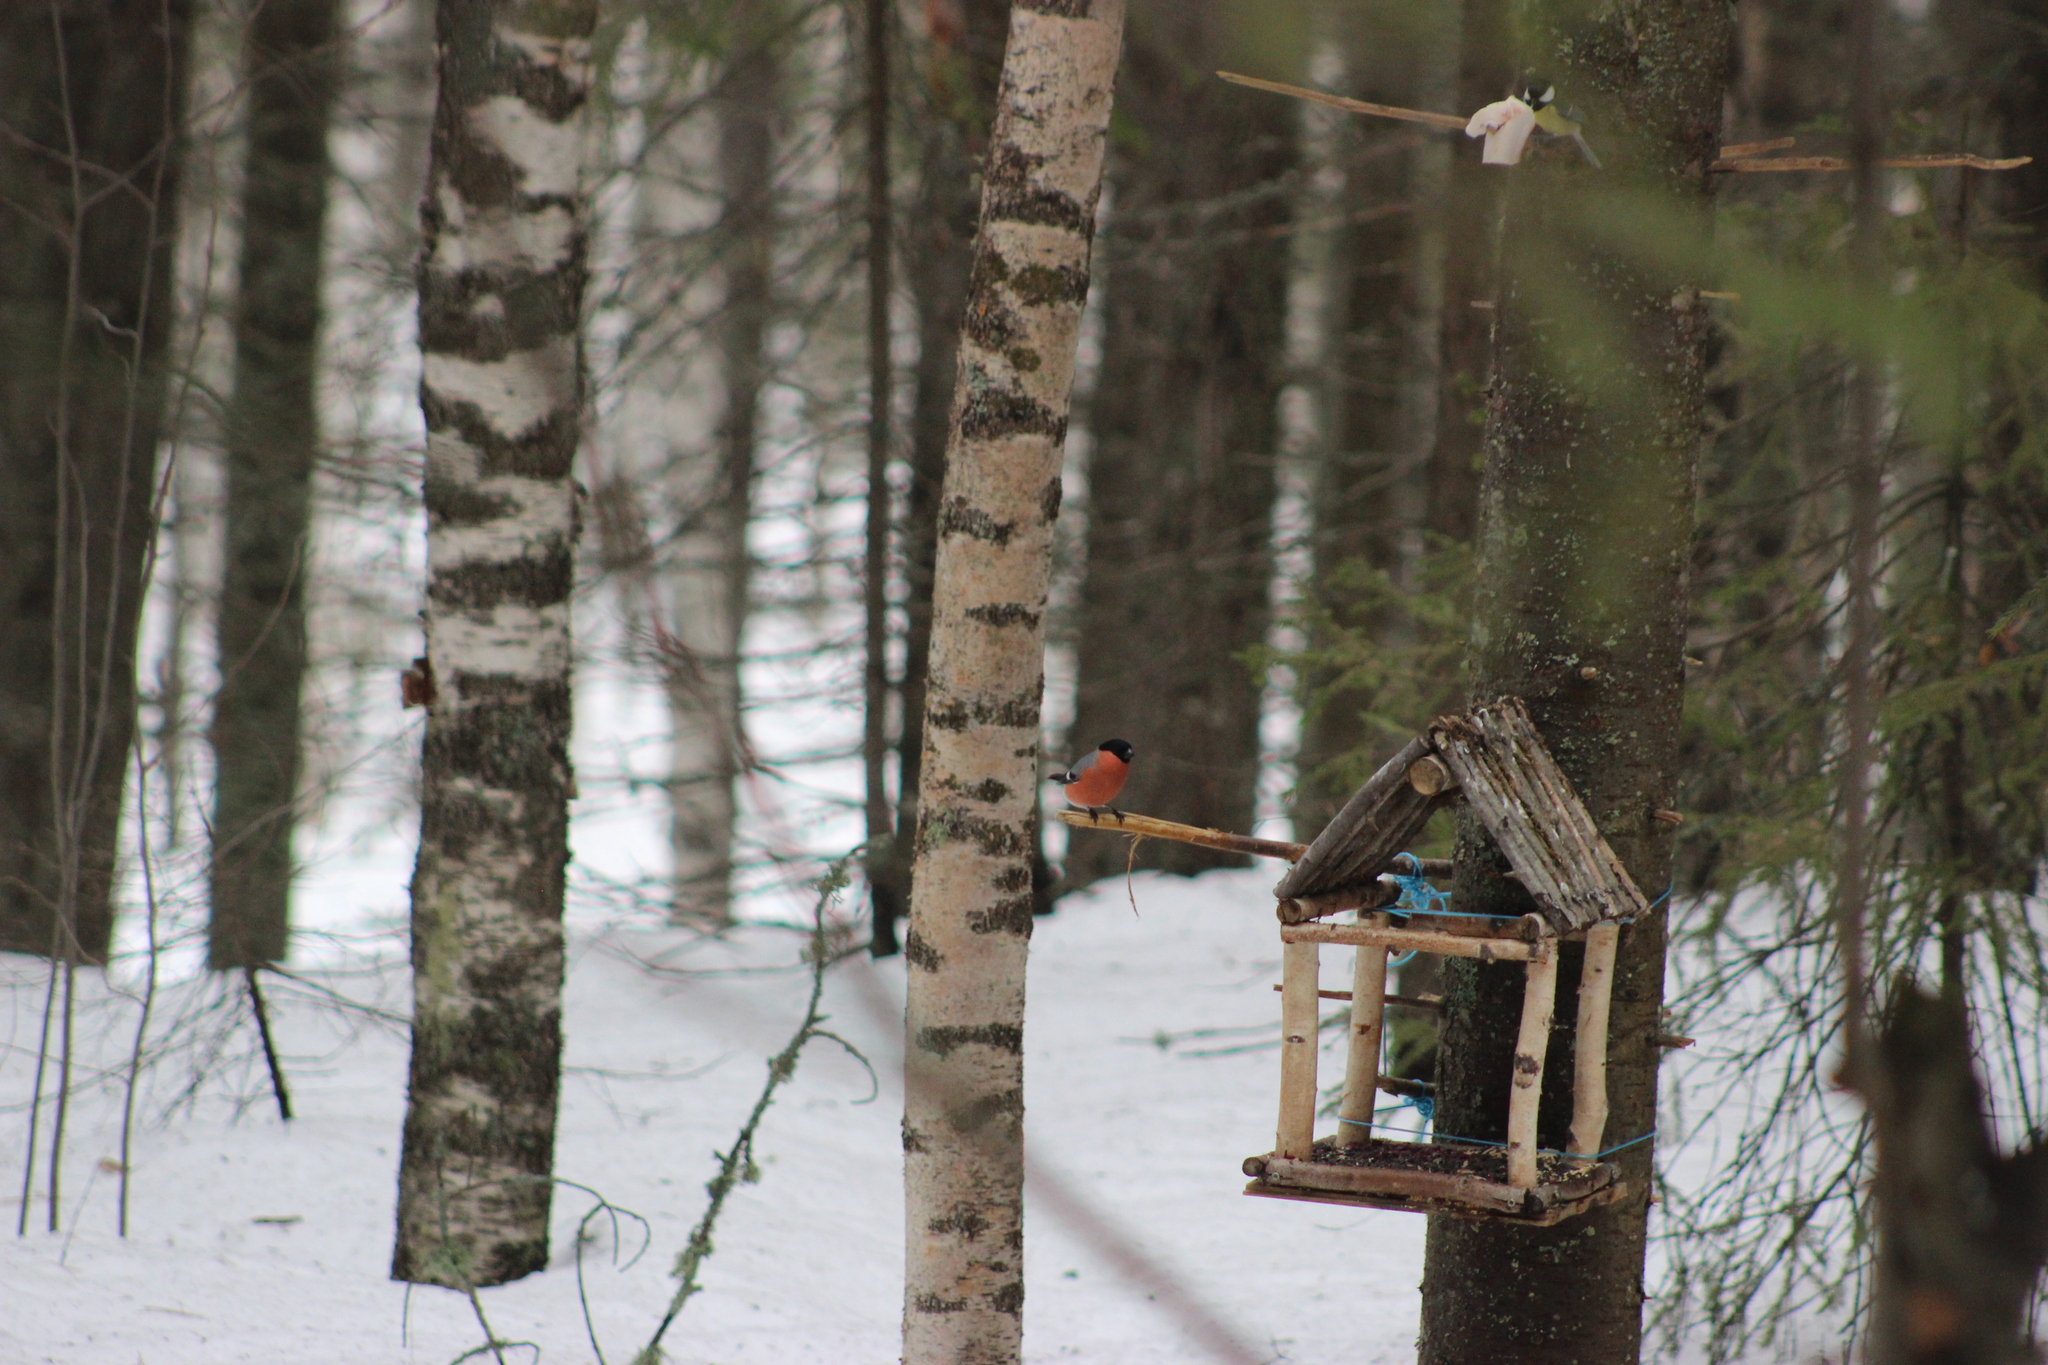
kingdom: Animalia
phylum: Chordata
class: Aves
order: Passeriformes
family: Fringillidae
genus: Pyrrhula
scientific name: Pyrrhula pyrrhula
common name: Eurasian bullfinch
